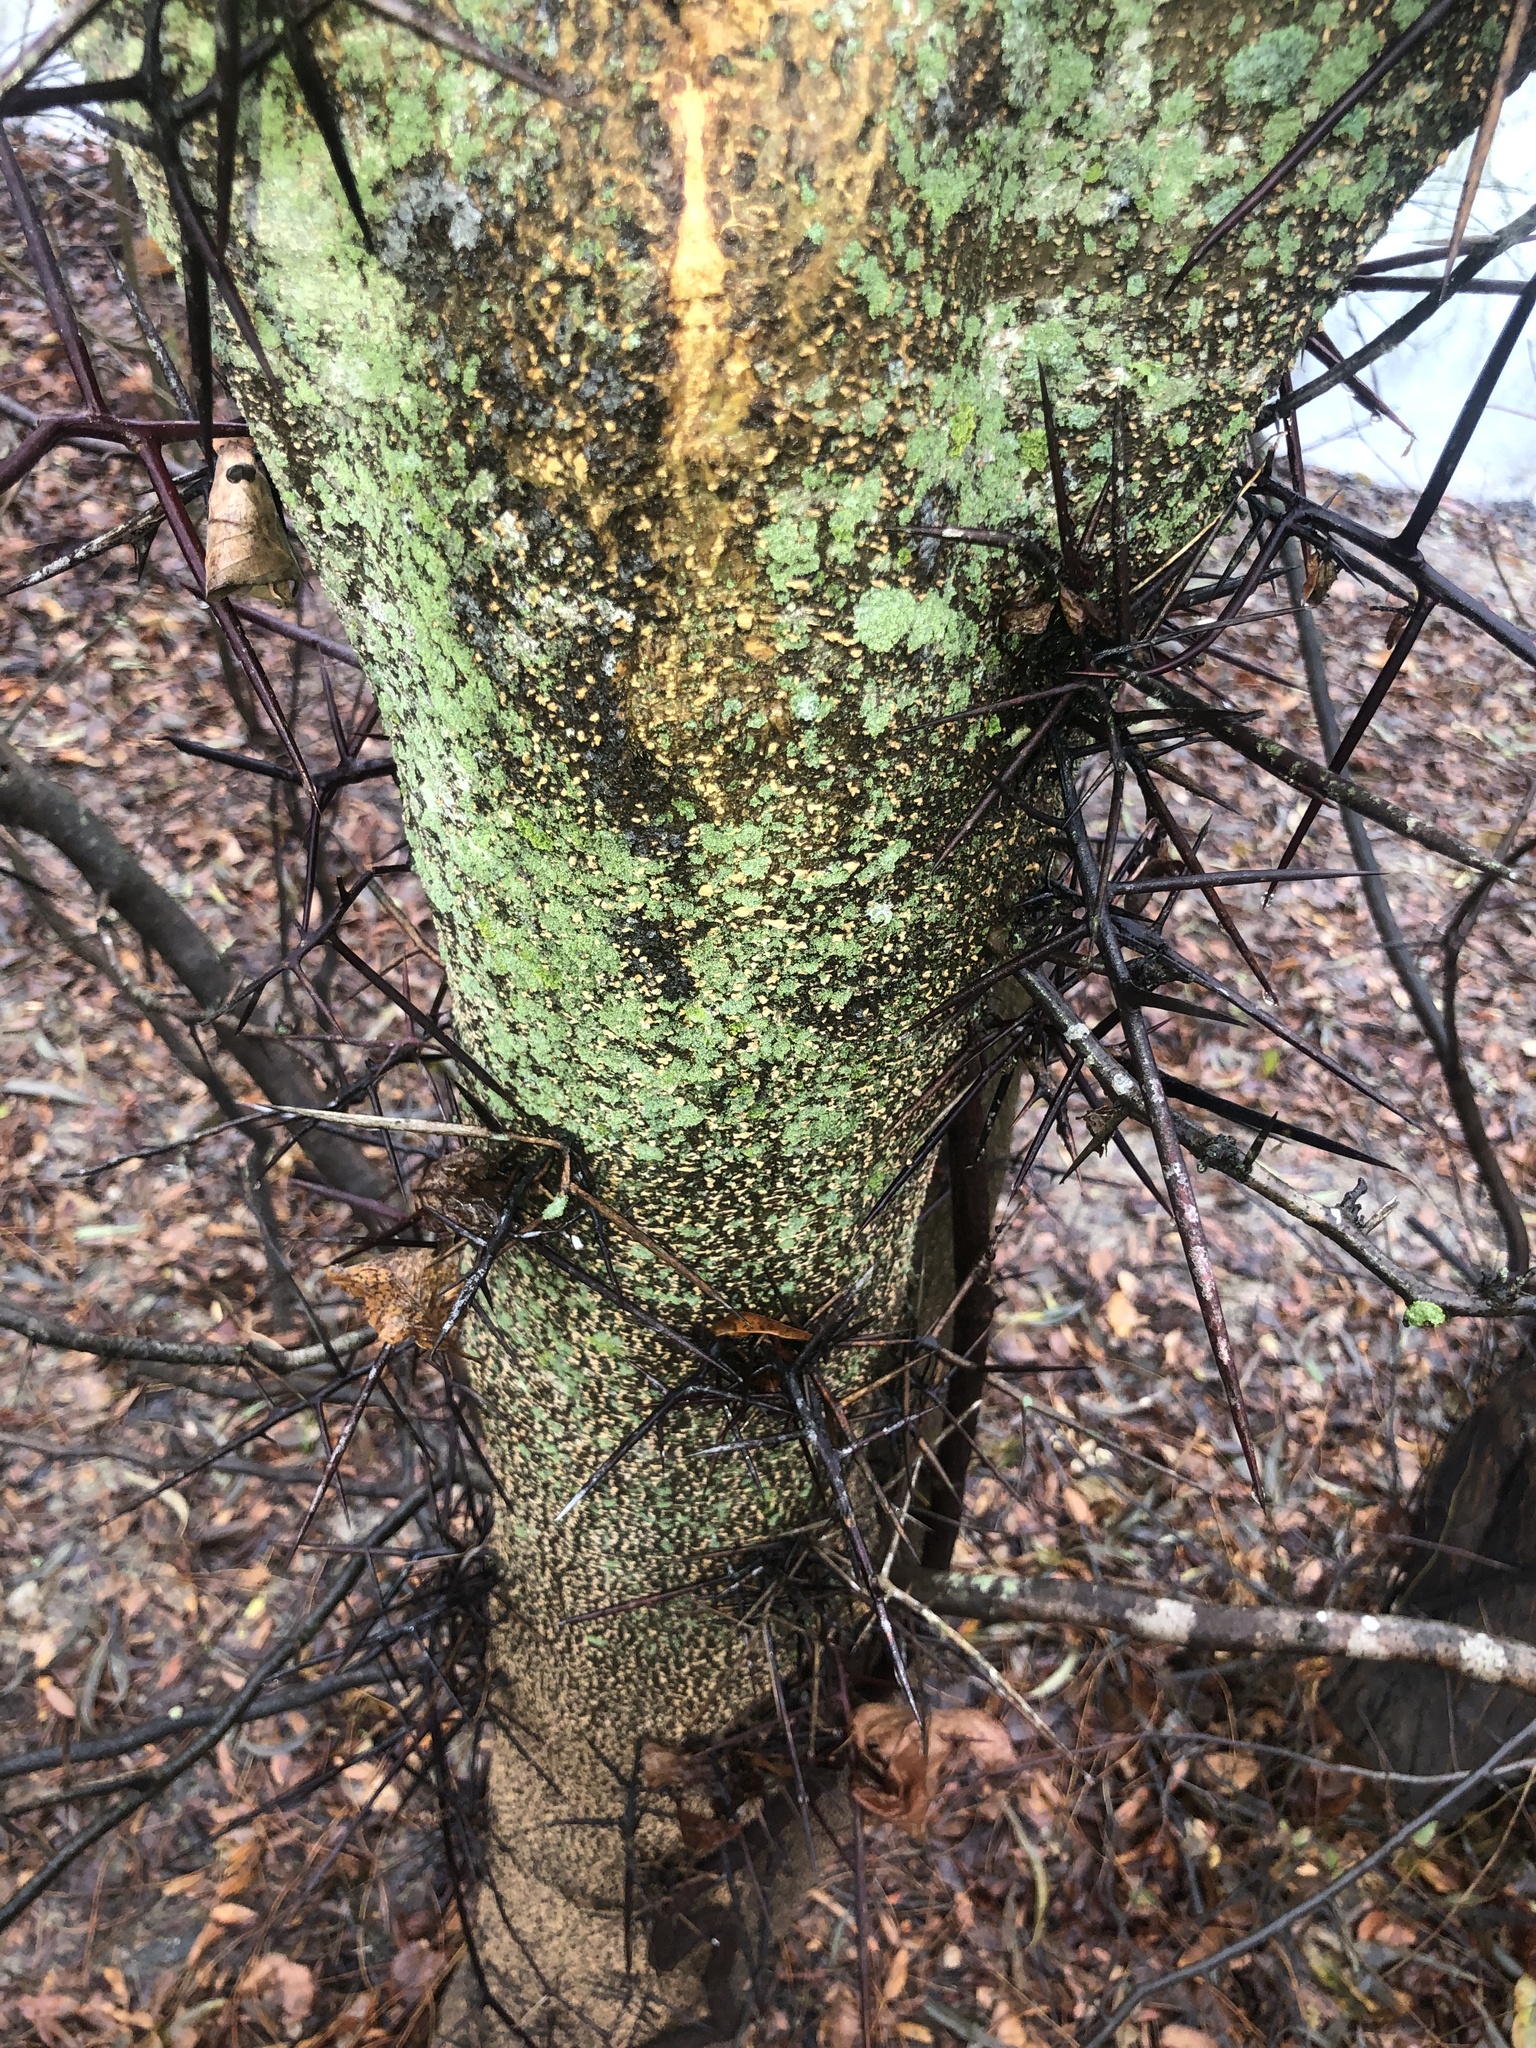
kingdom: Plantae
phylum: Tracheophyta
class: Magnoliopsida
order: Fabales
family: Fabaceae
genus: Gleditsia
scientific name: Gleditsia aquatica
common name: Swamp-locust
